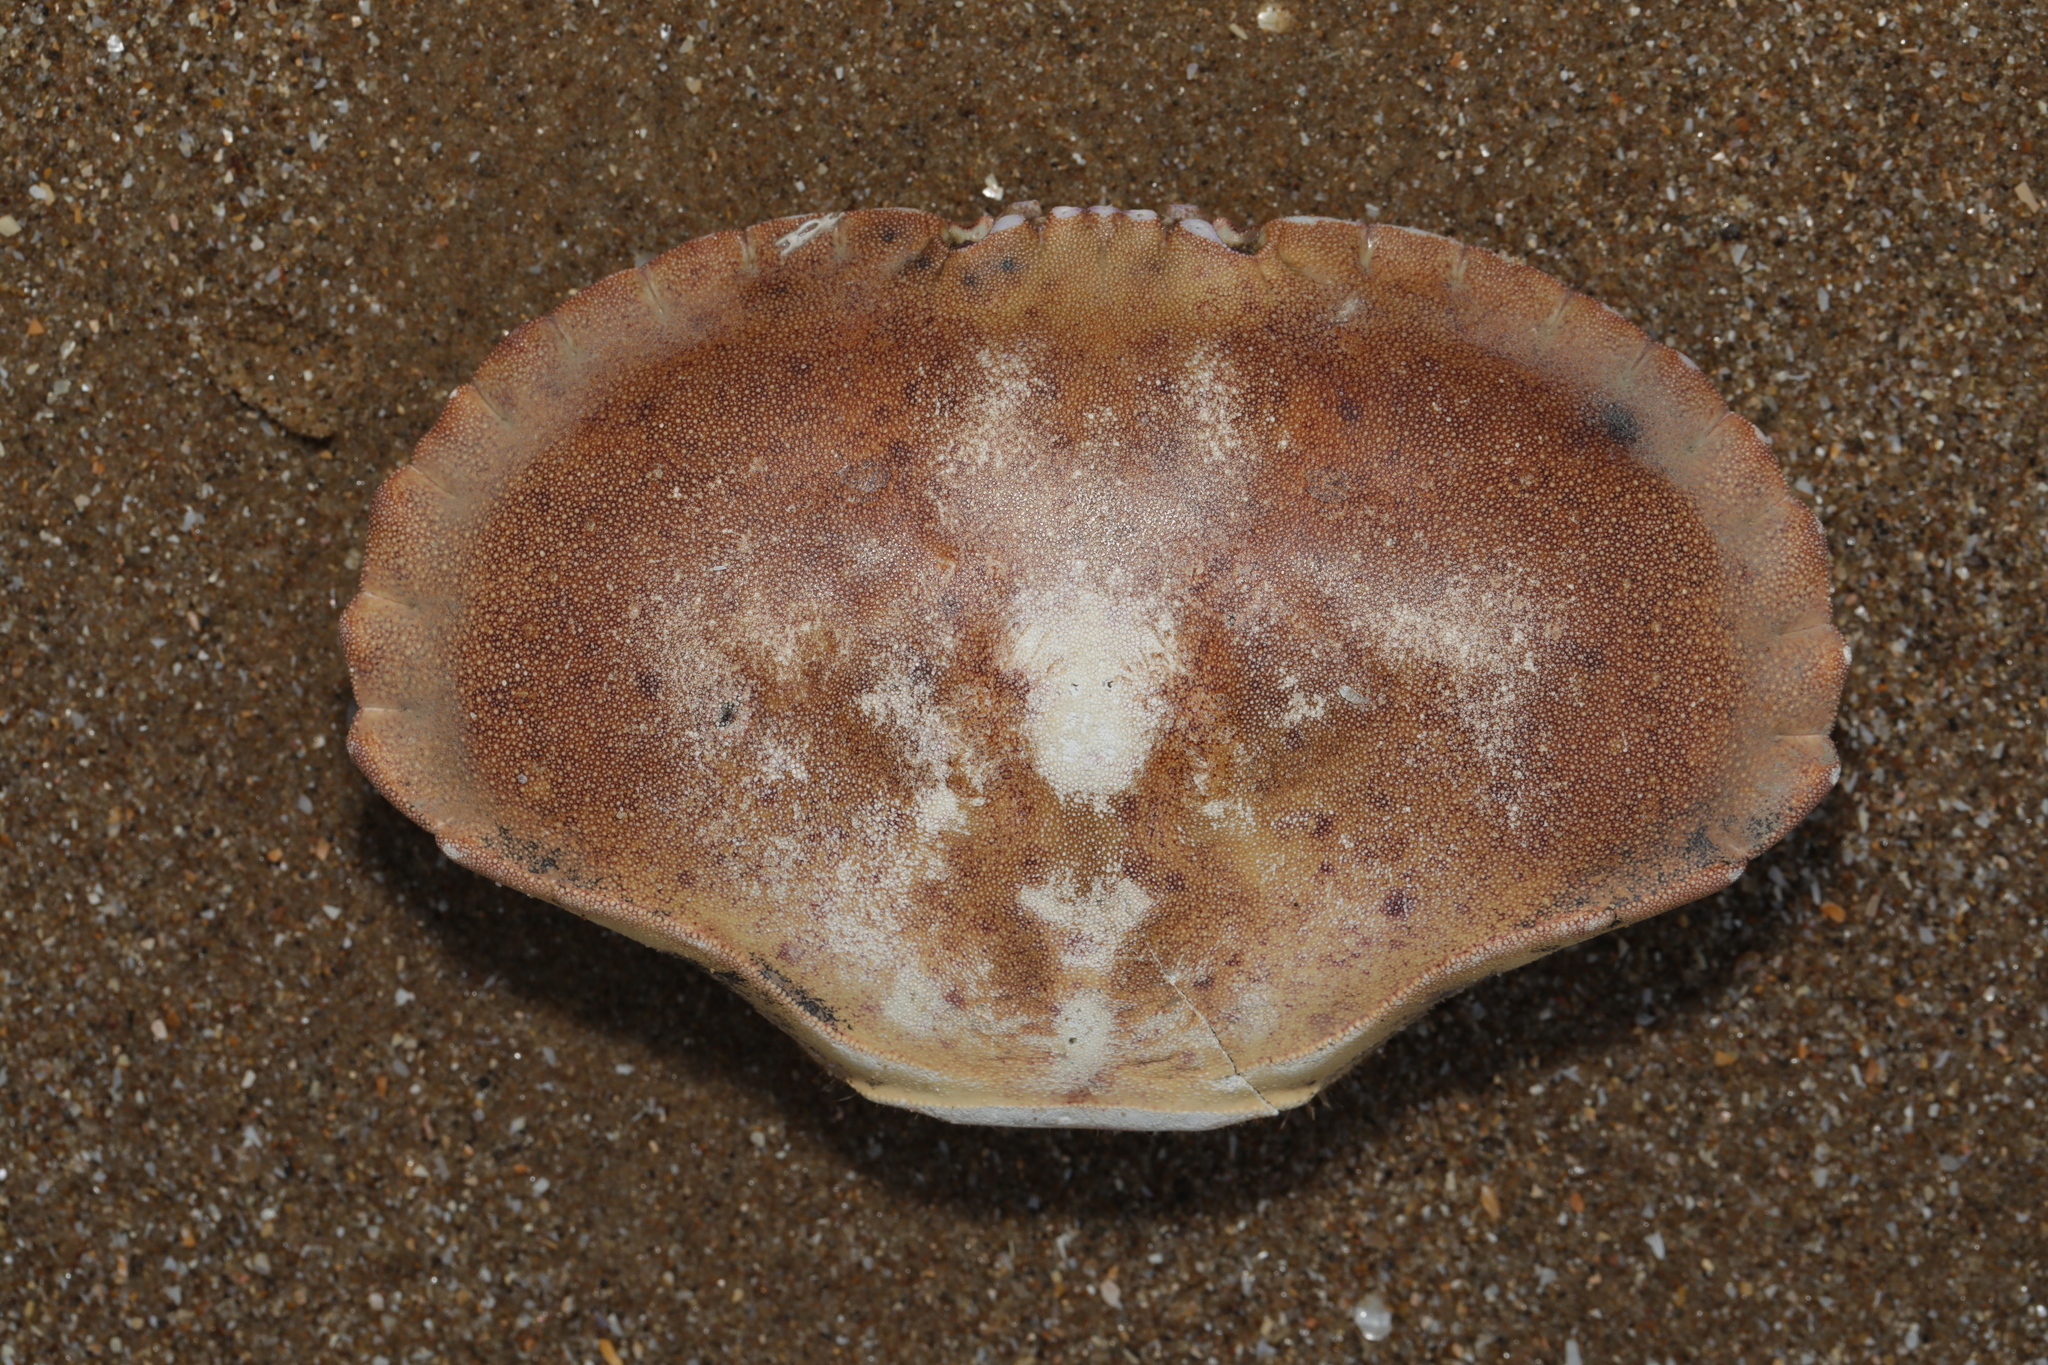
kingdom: Animalia
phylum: Arthropoda
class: Malacostraca
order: Decapoda
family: Cancridae
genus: Cancer
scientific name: Cancer pagurus
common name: Edible crab
